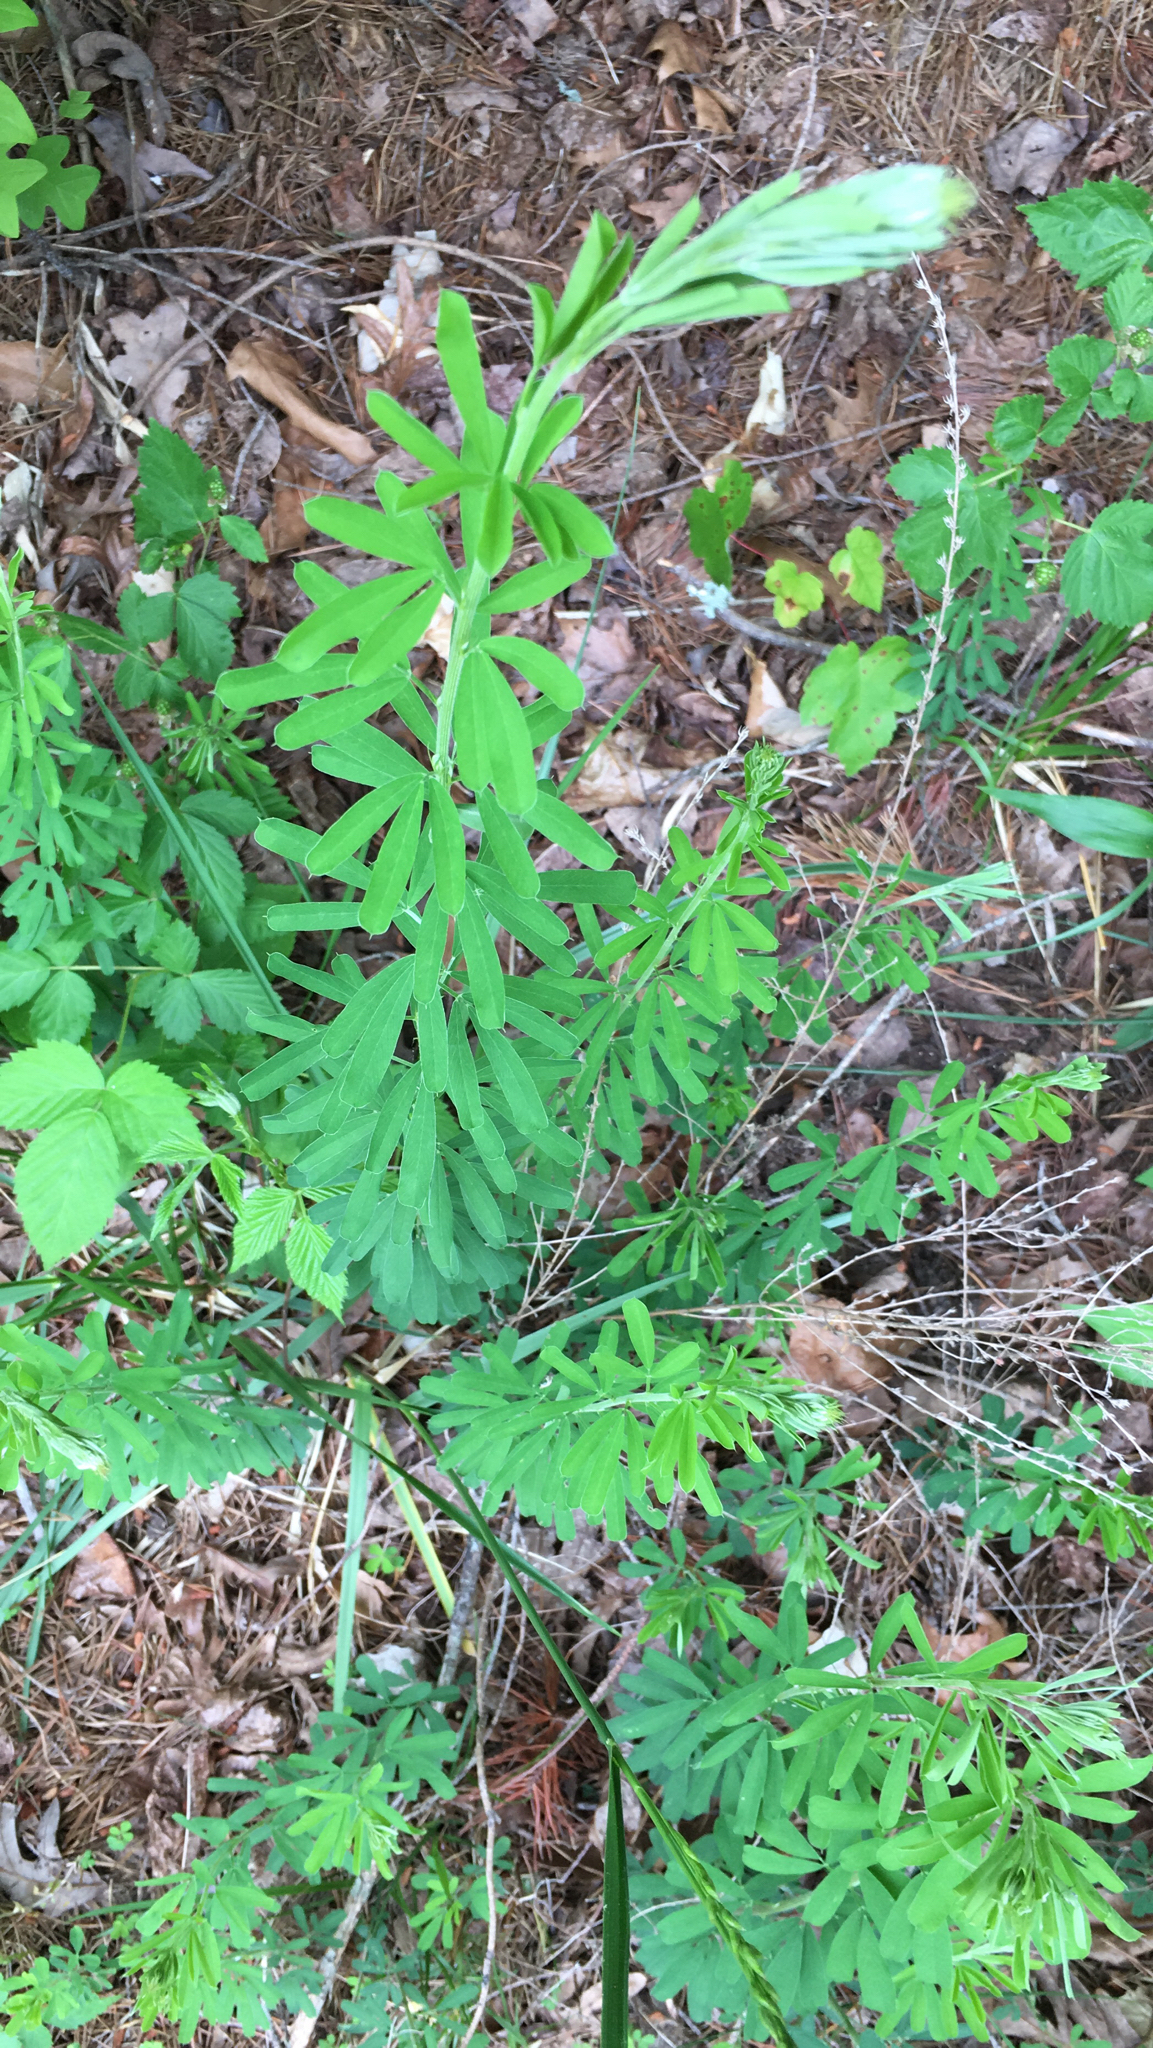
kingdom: Plantae
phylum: Tracheophyta
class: Magnoliopsida
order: Fabales
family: Fabaceae
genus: Lespedeza
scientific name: Lespedeza cuneata
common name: Chinese bush-clover
